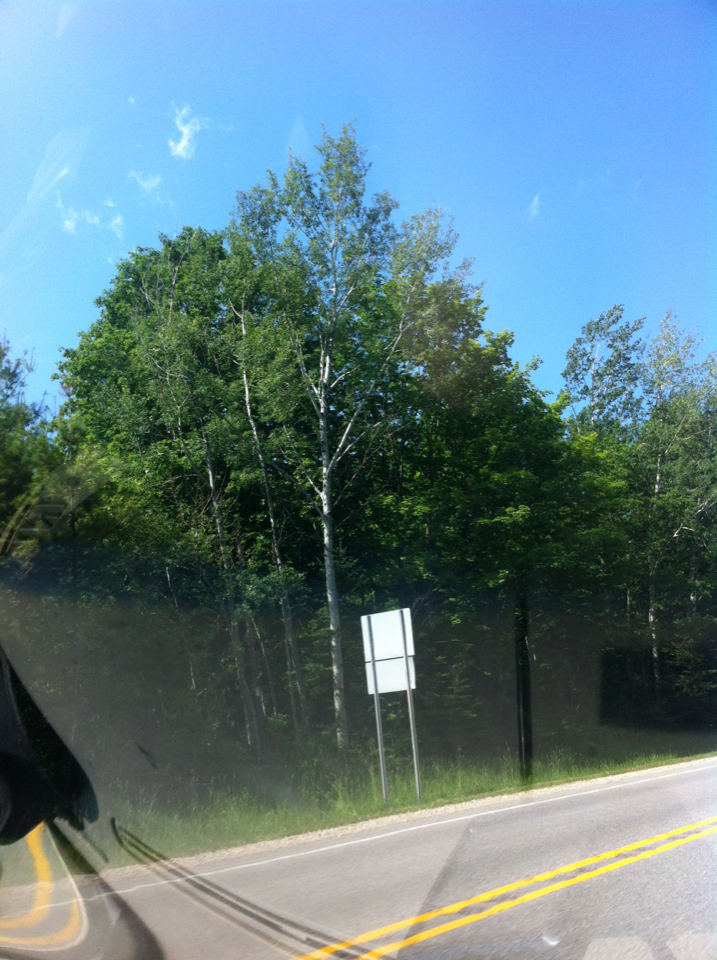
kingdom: Plantae
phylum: Tracheophyta
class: Magnoliopsida
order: Malpighiales
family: Salicaceae
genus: Populus
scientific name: Populus tremuloides
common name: Quaking aspen
